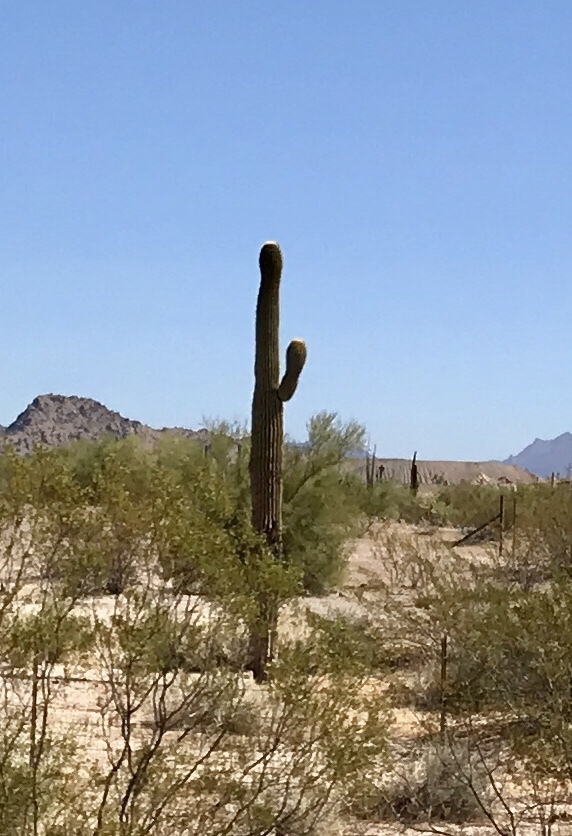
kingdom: Plantae
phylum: Tracheophyta
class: Magnoliopsida
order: Caryophyllales
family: Cactaceae
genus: Carnegiea
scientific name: Carnegiea gigantea
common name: Saguaro
